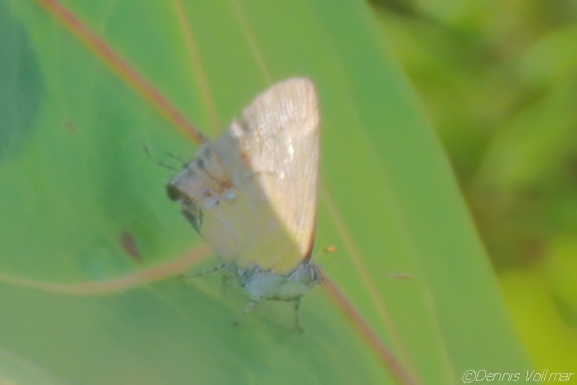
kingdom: Animalia
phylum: Arthropoda
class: Insecta
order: Lepidoptera
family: Lycaenidae
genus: Thecla
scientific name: Thecla maesites
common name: Verde azul hairstreak
